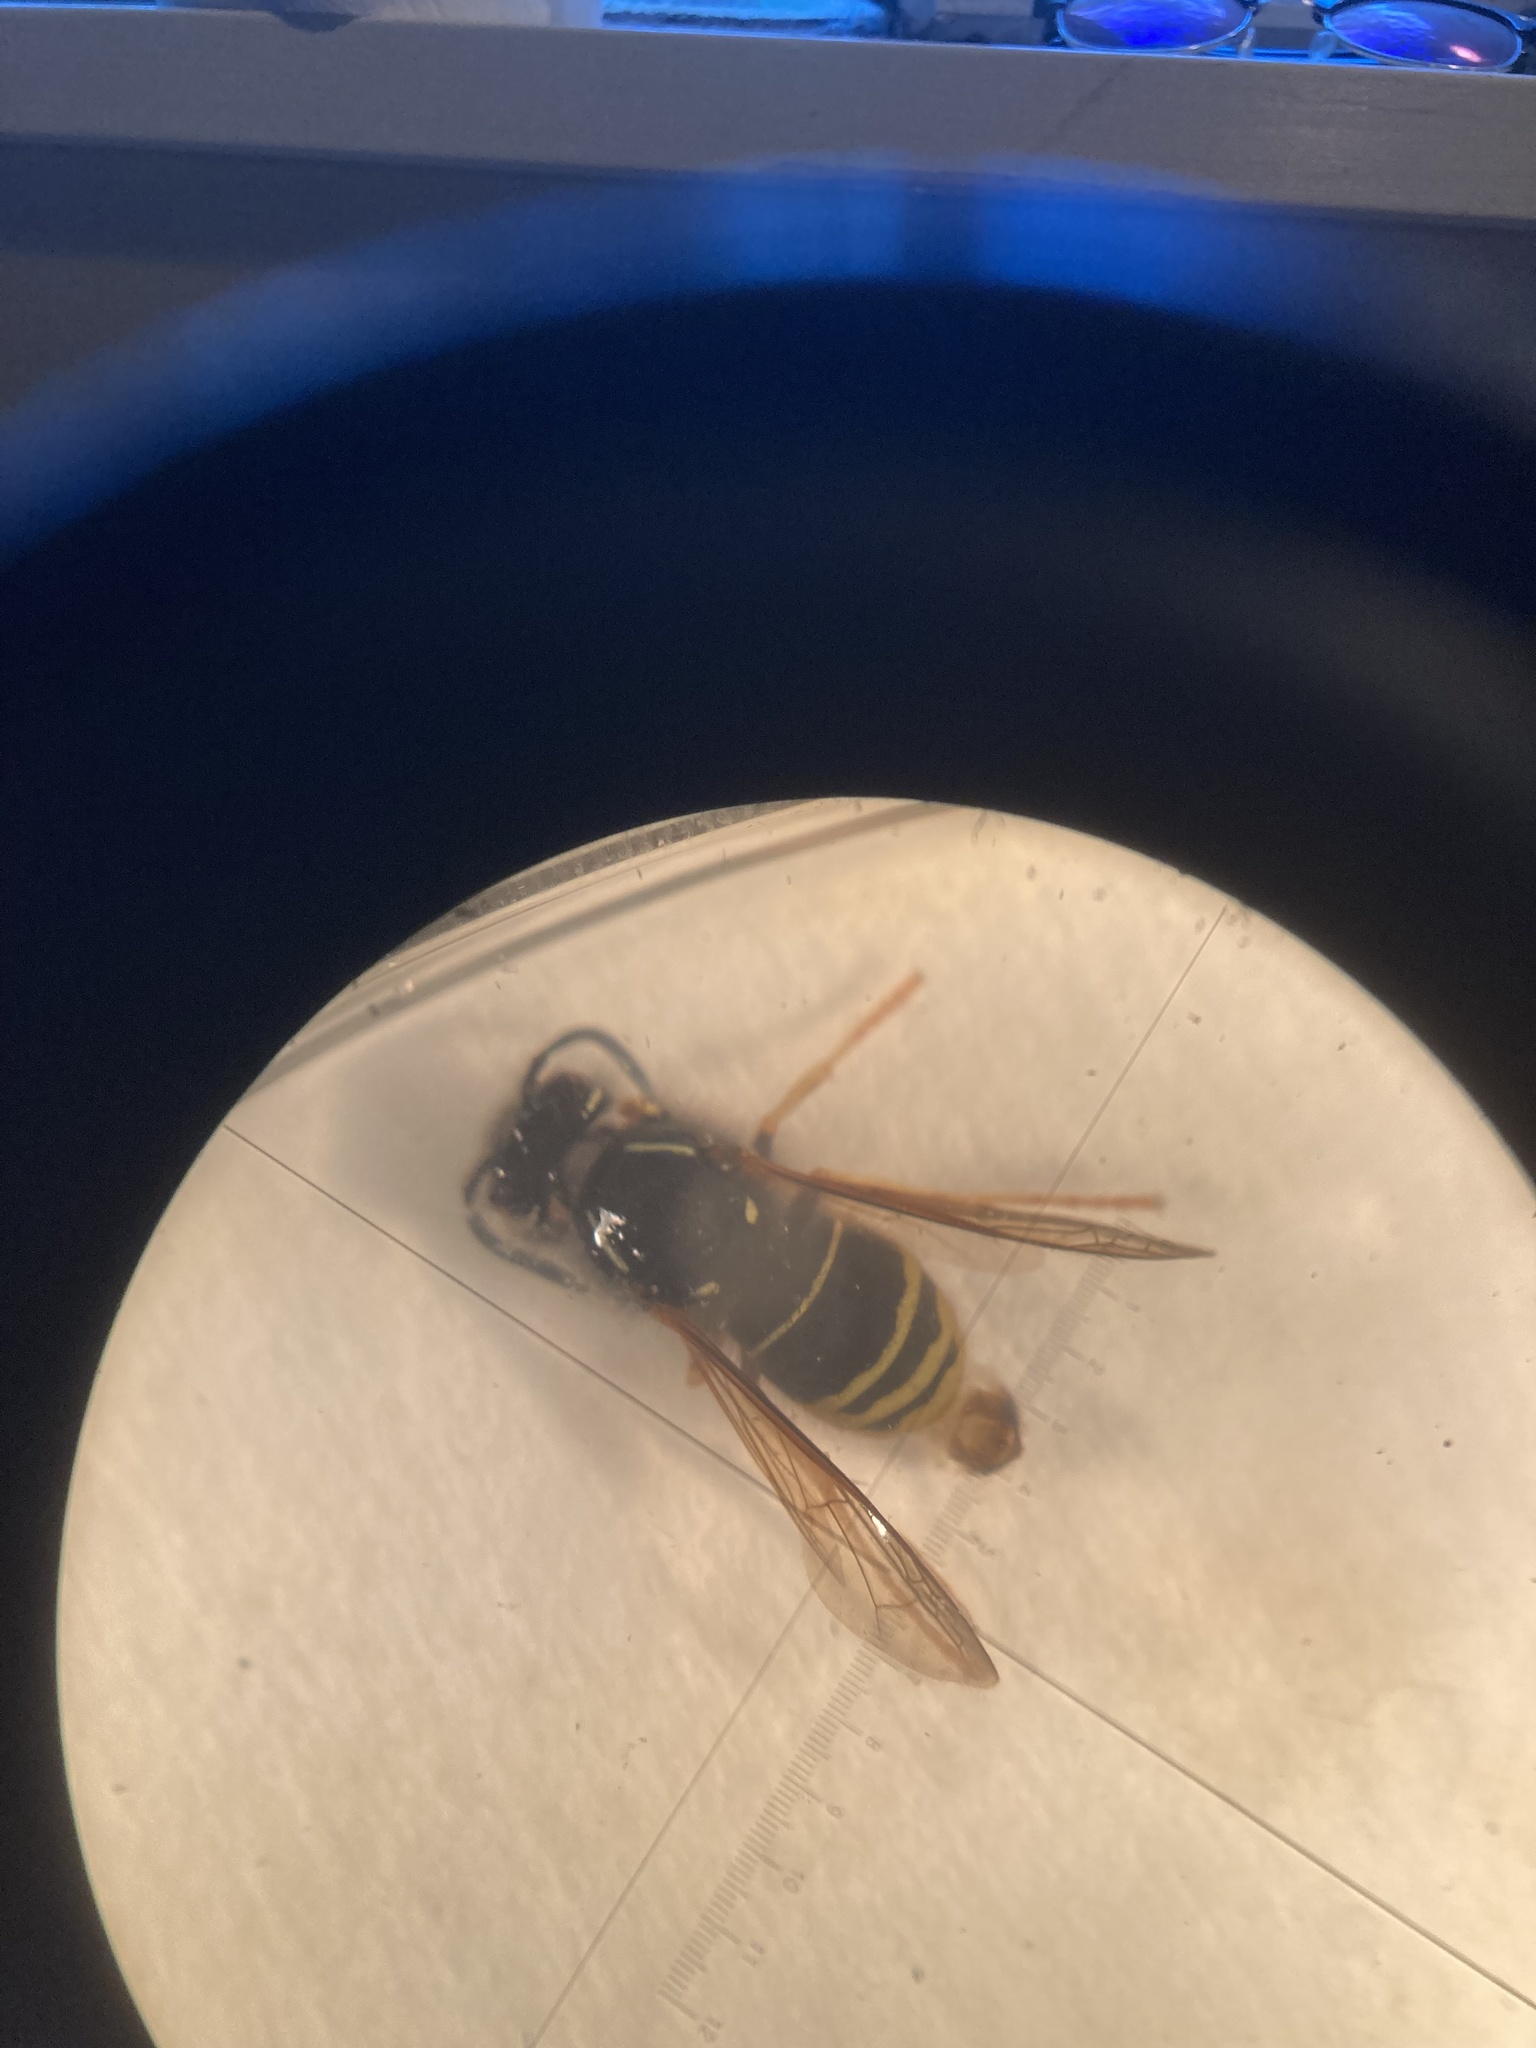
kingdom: Animalia
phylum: Arthropoda
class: Insecta
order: Hymenoptera
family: Vespidae
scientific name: Vespidae
